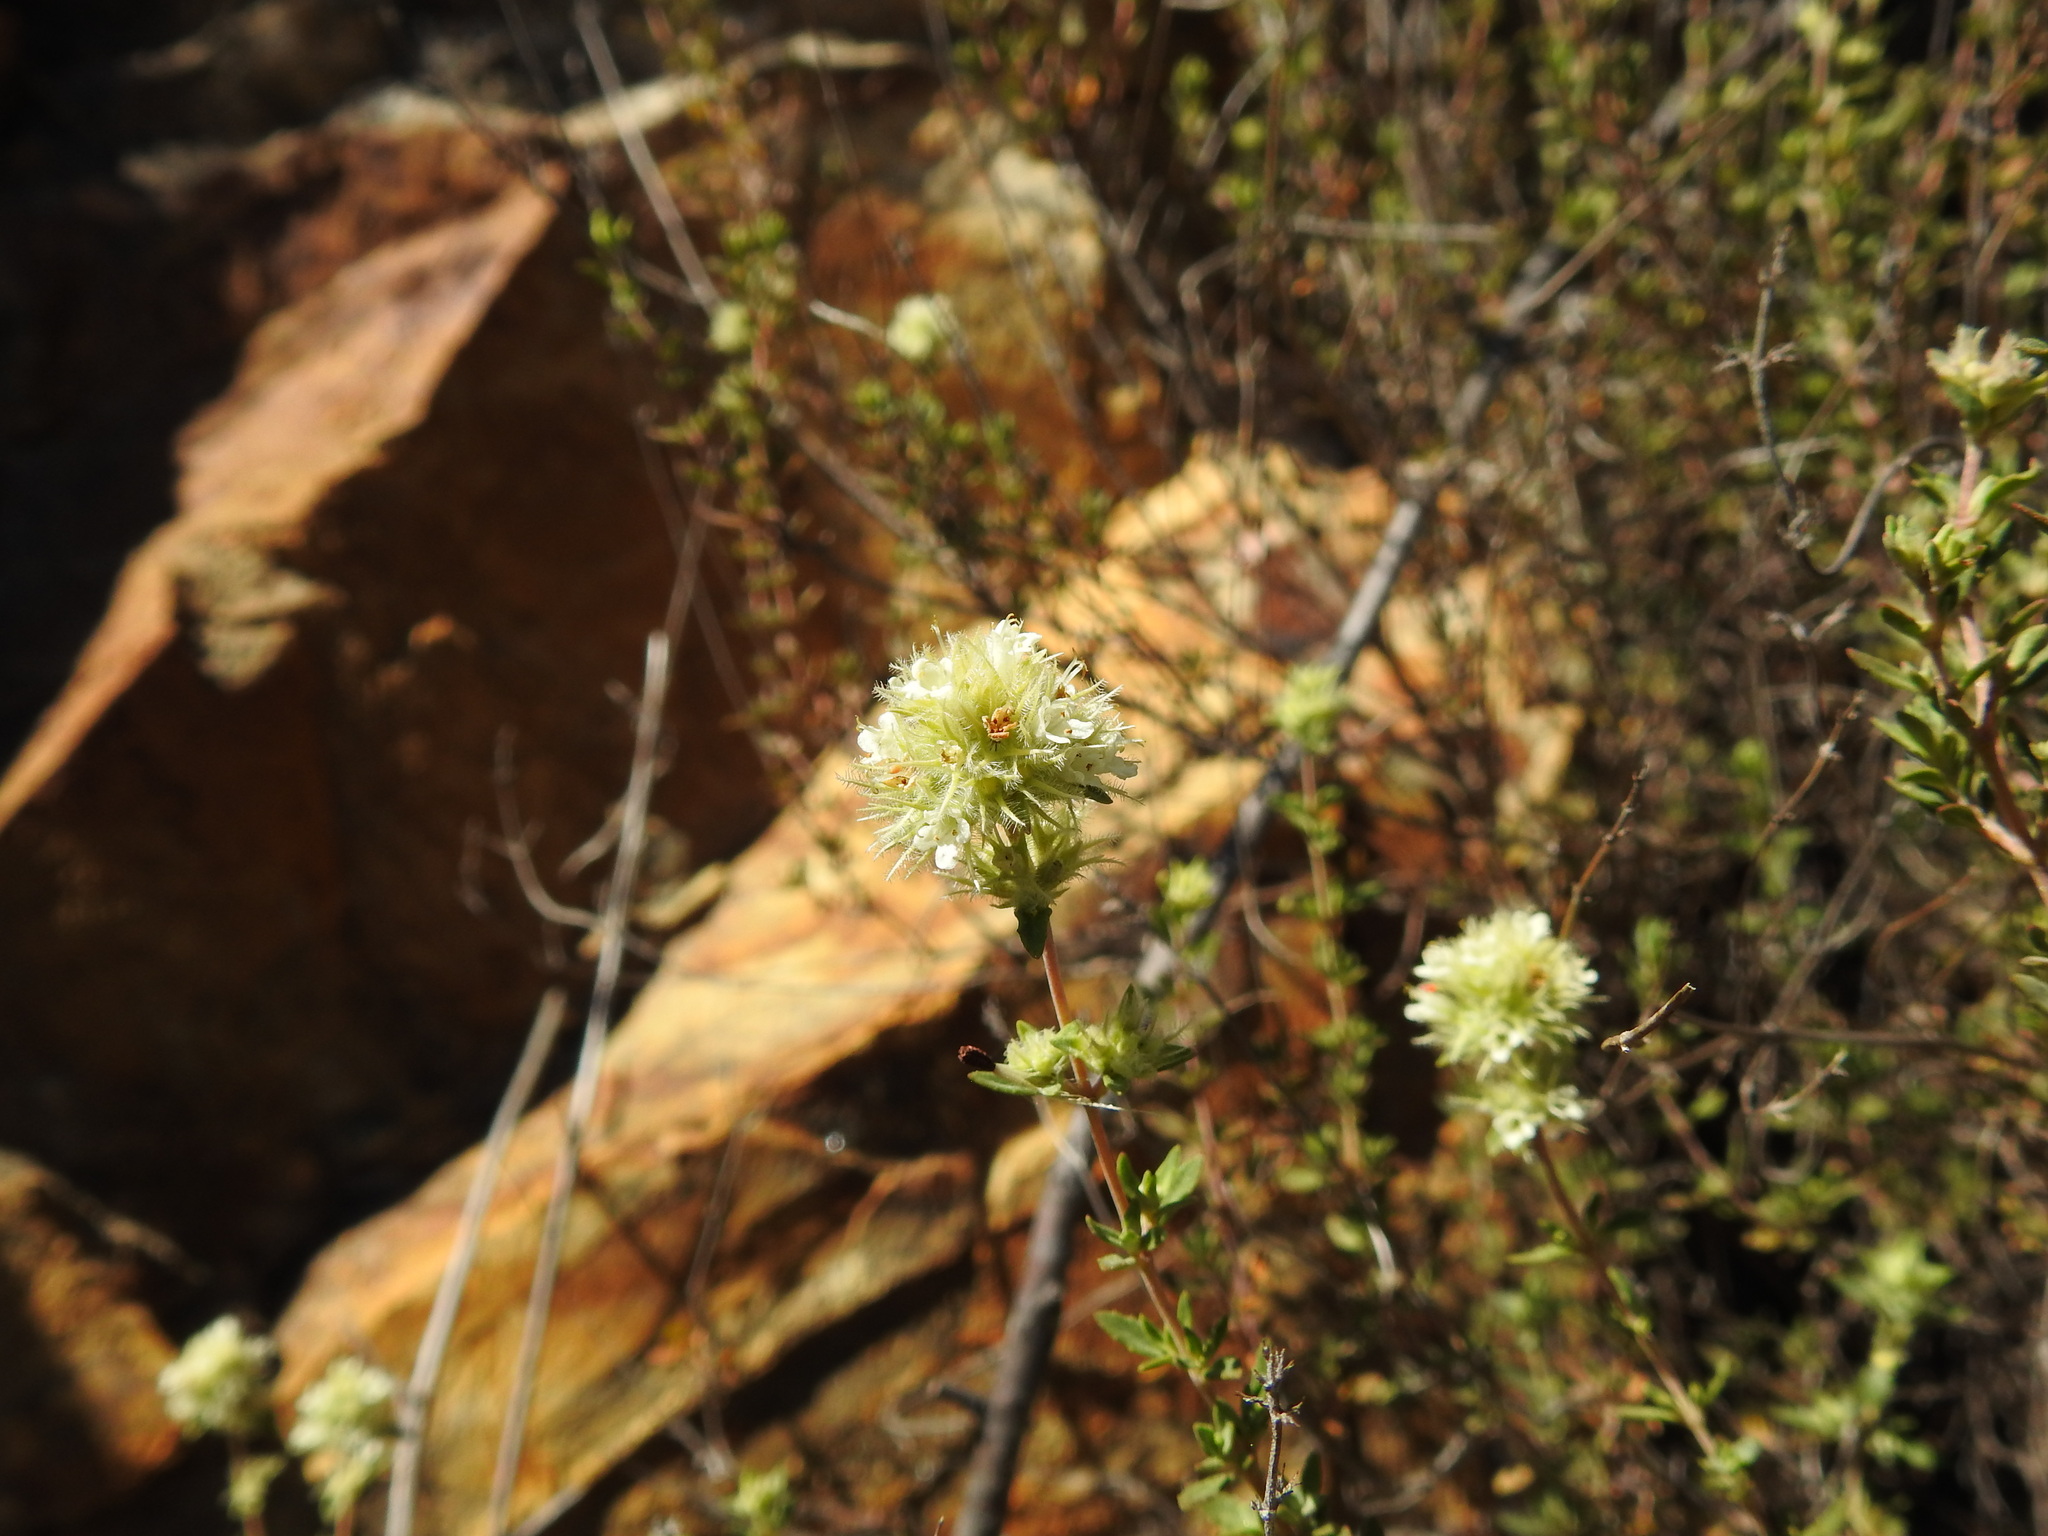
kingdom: Plantae
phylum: Tracheophyta
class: Magnoliopsida
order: Lamiales
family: Lamiaceae
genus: Thymus
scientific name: Thymus mastichina
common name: Mastic thyme
